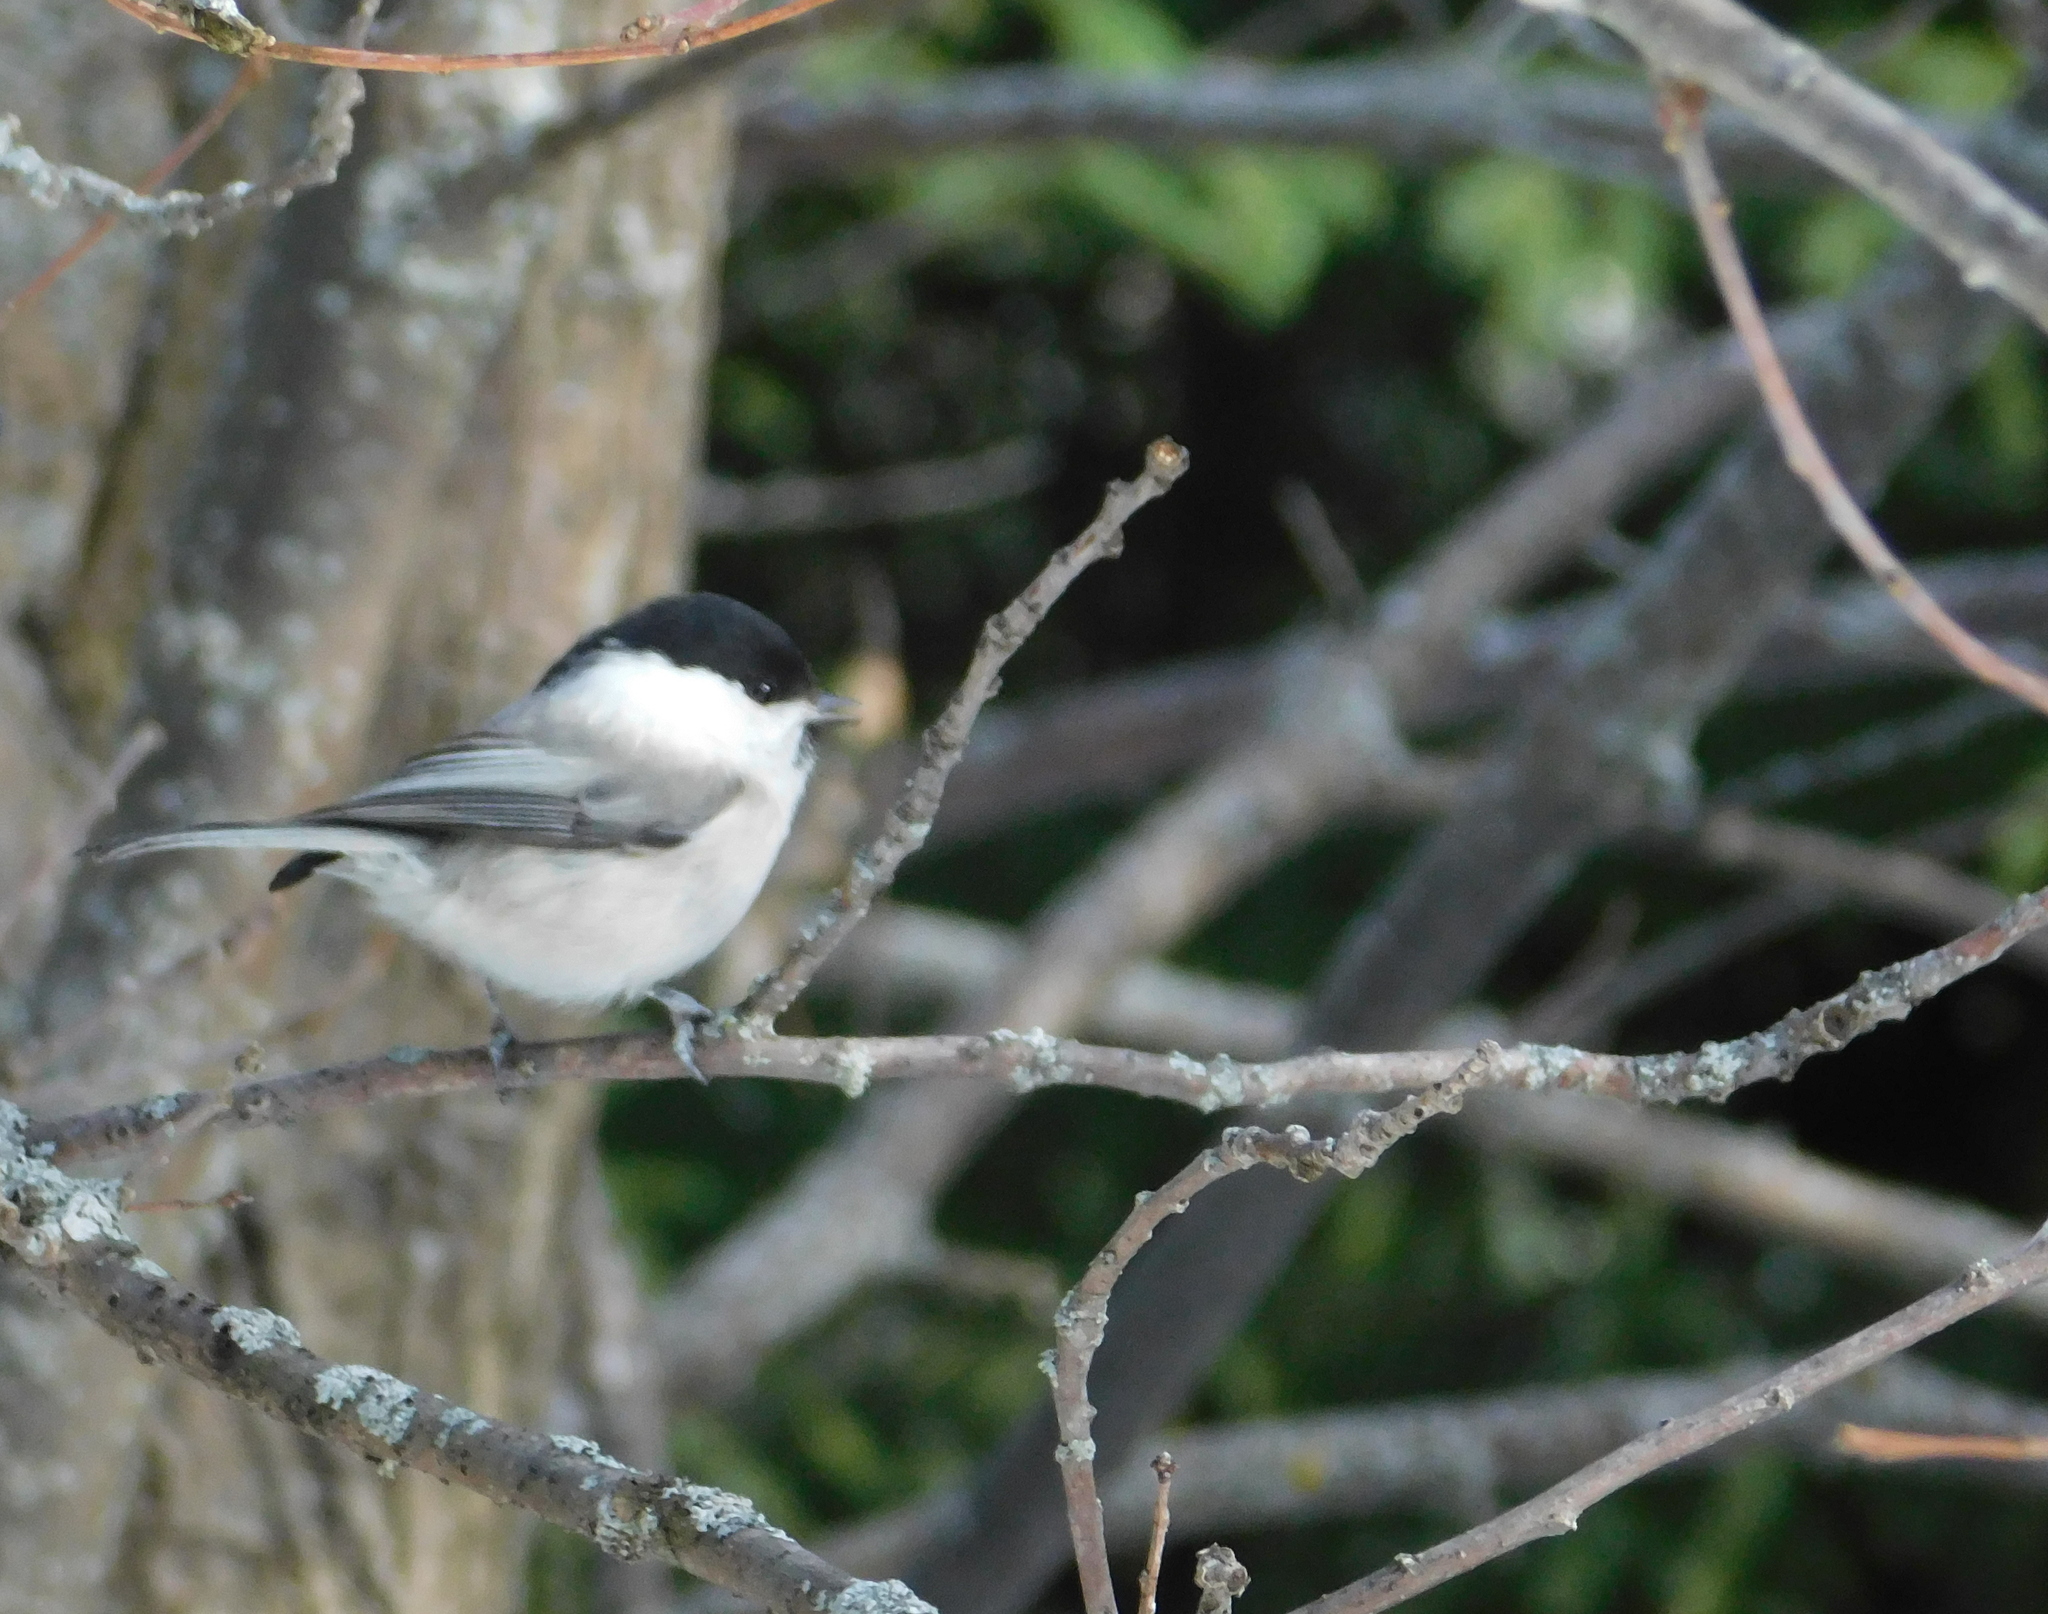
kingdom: Animalia
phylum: Chordata
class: Aves
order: Passeriformes
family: Paridae
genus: Poecile
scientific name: Poecile montanus
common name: Willow tit
